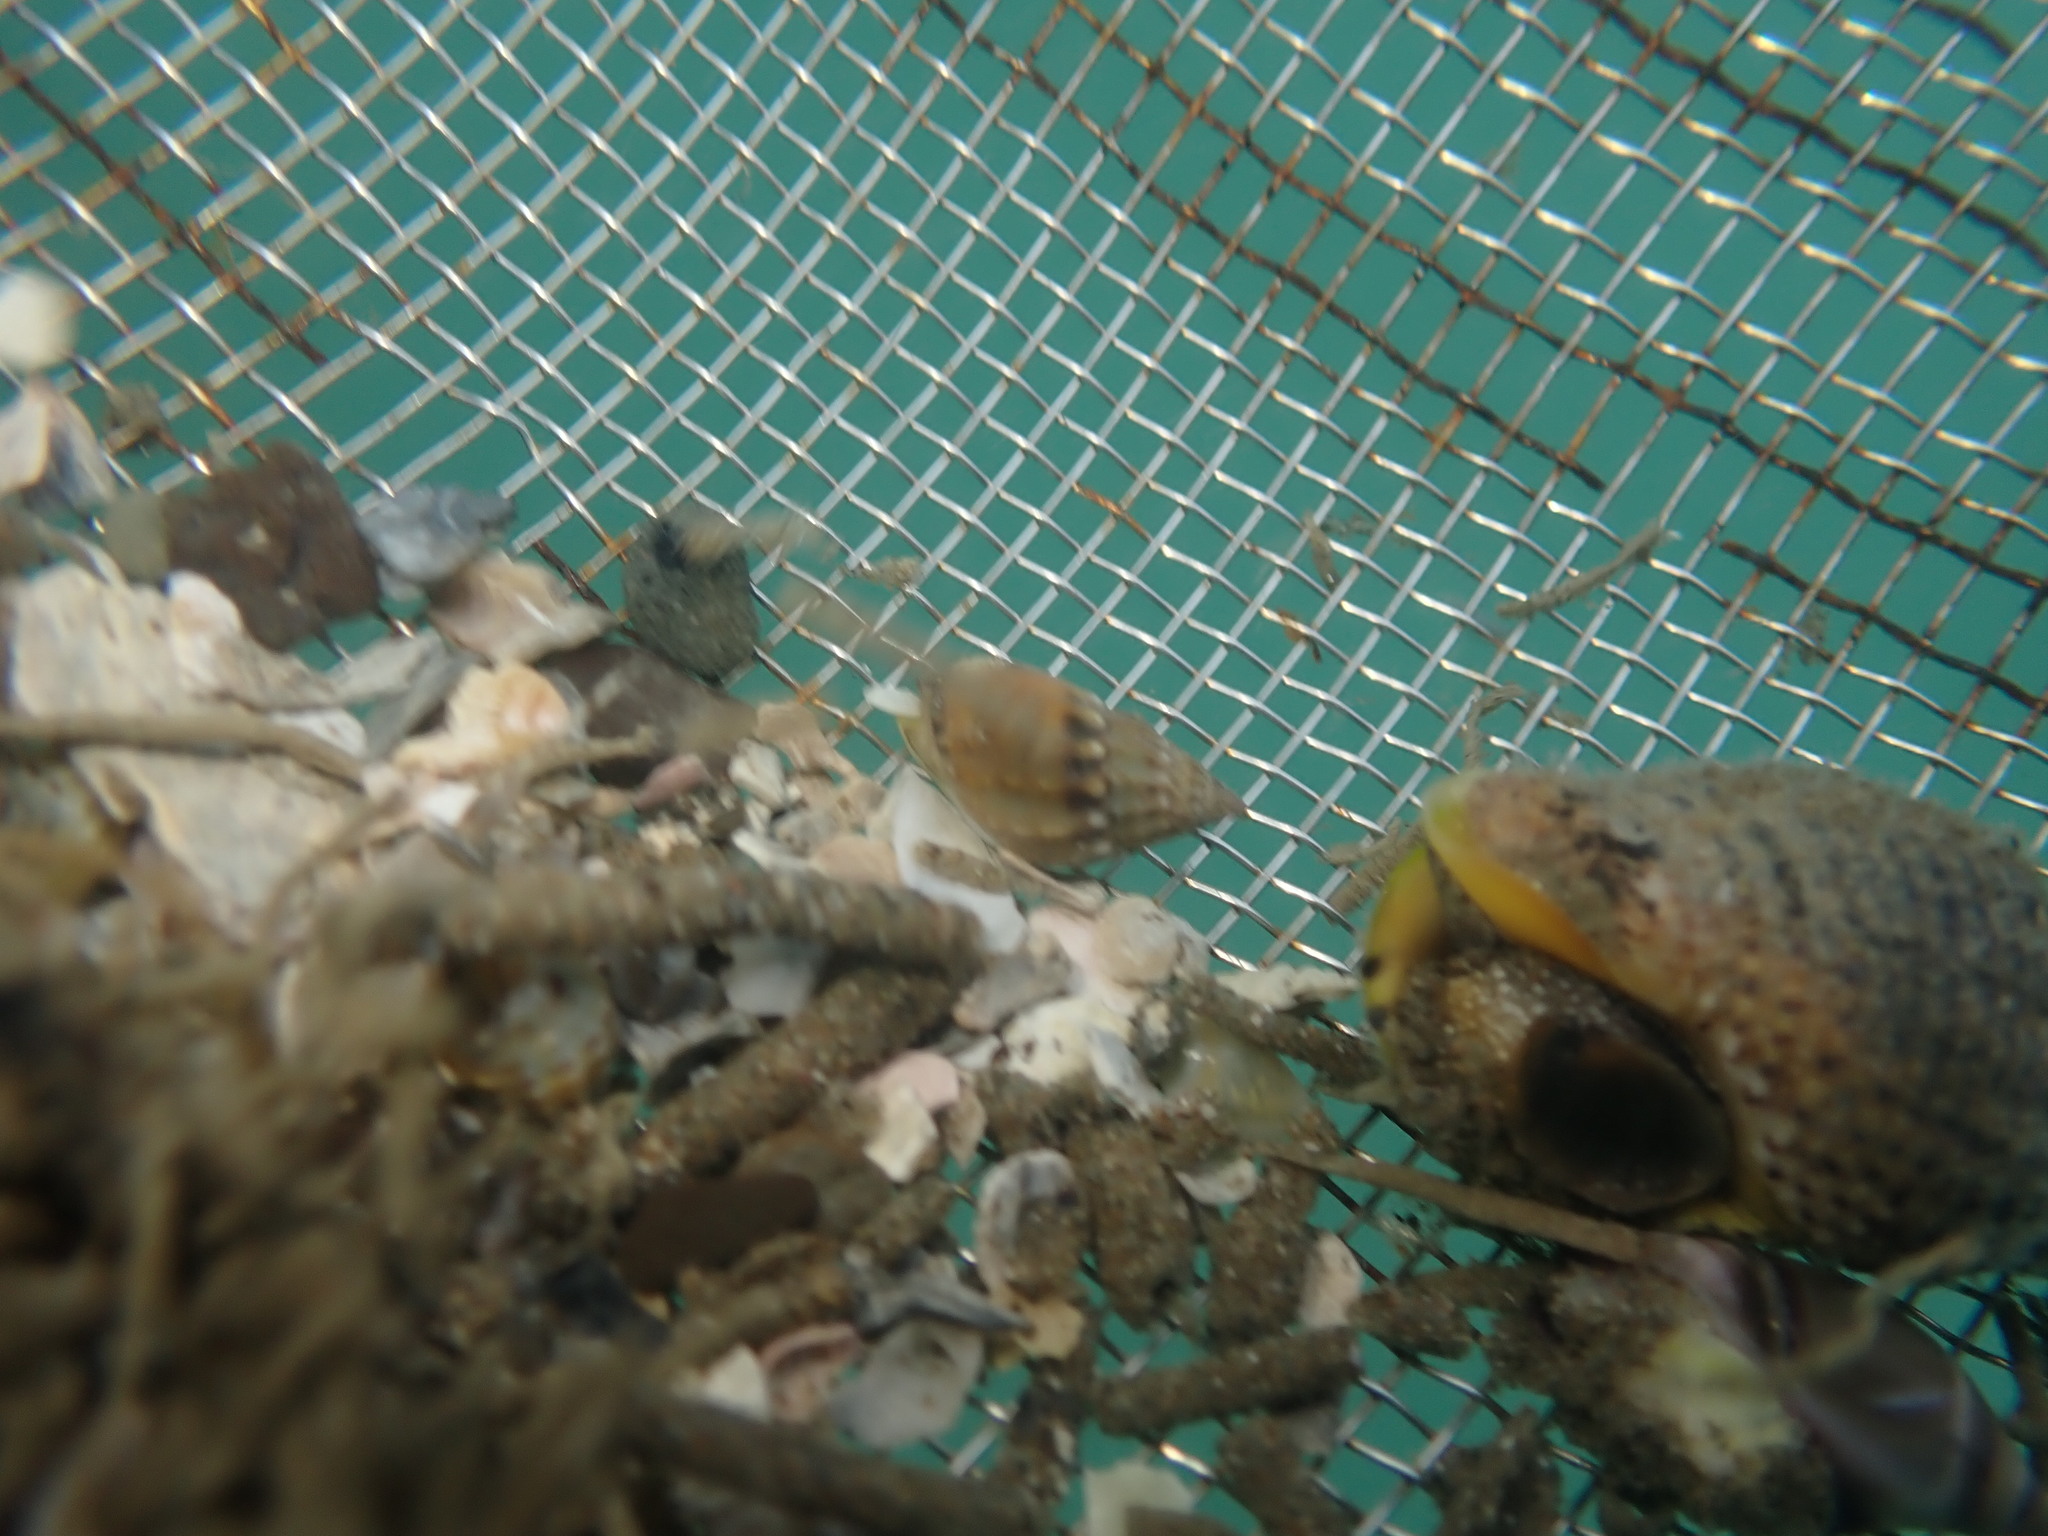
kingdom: Animalia
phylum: Mollusca
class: Gastropoda
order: Neogastropoda
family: Nassariidae
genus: Tritia
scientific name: Tritia burchardi
